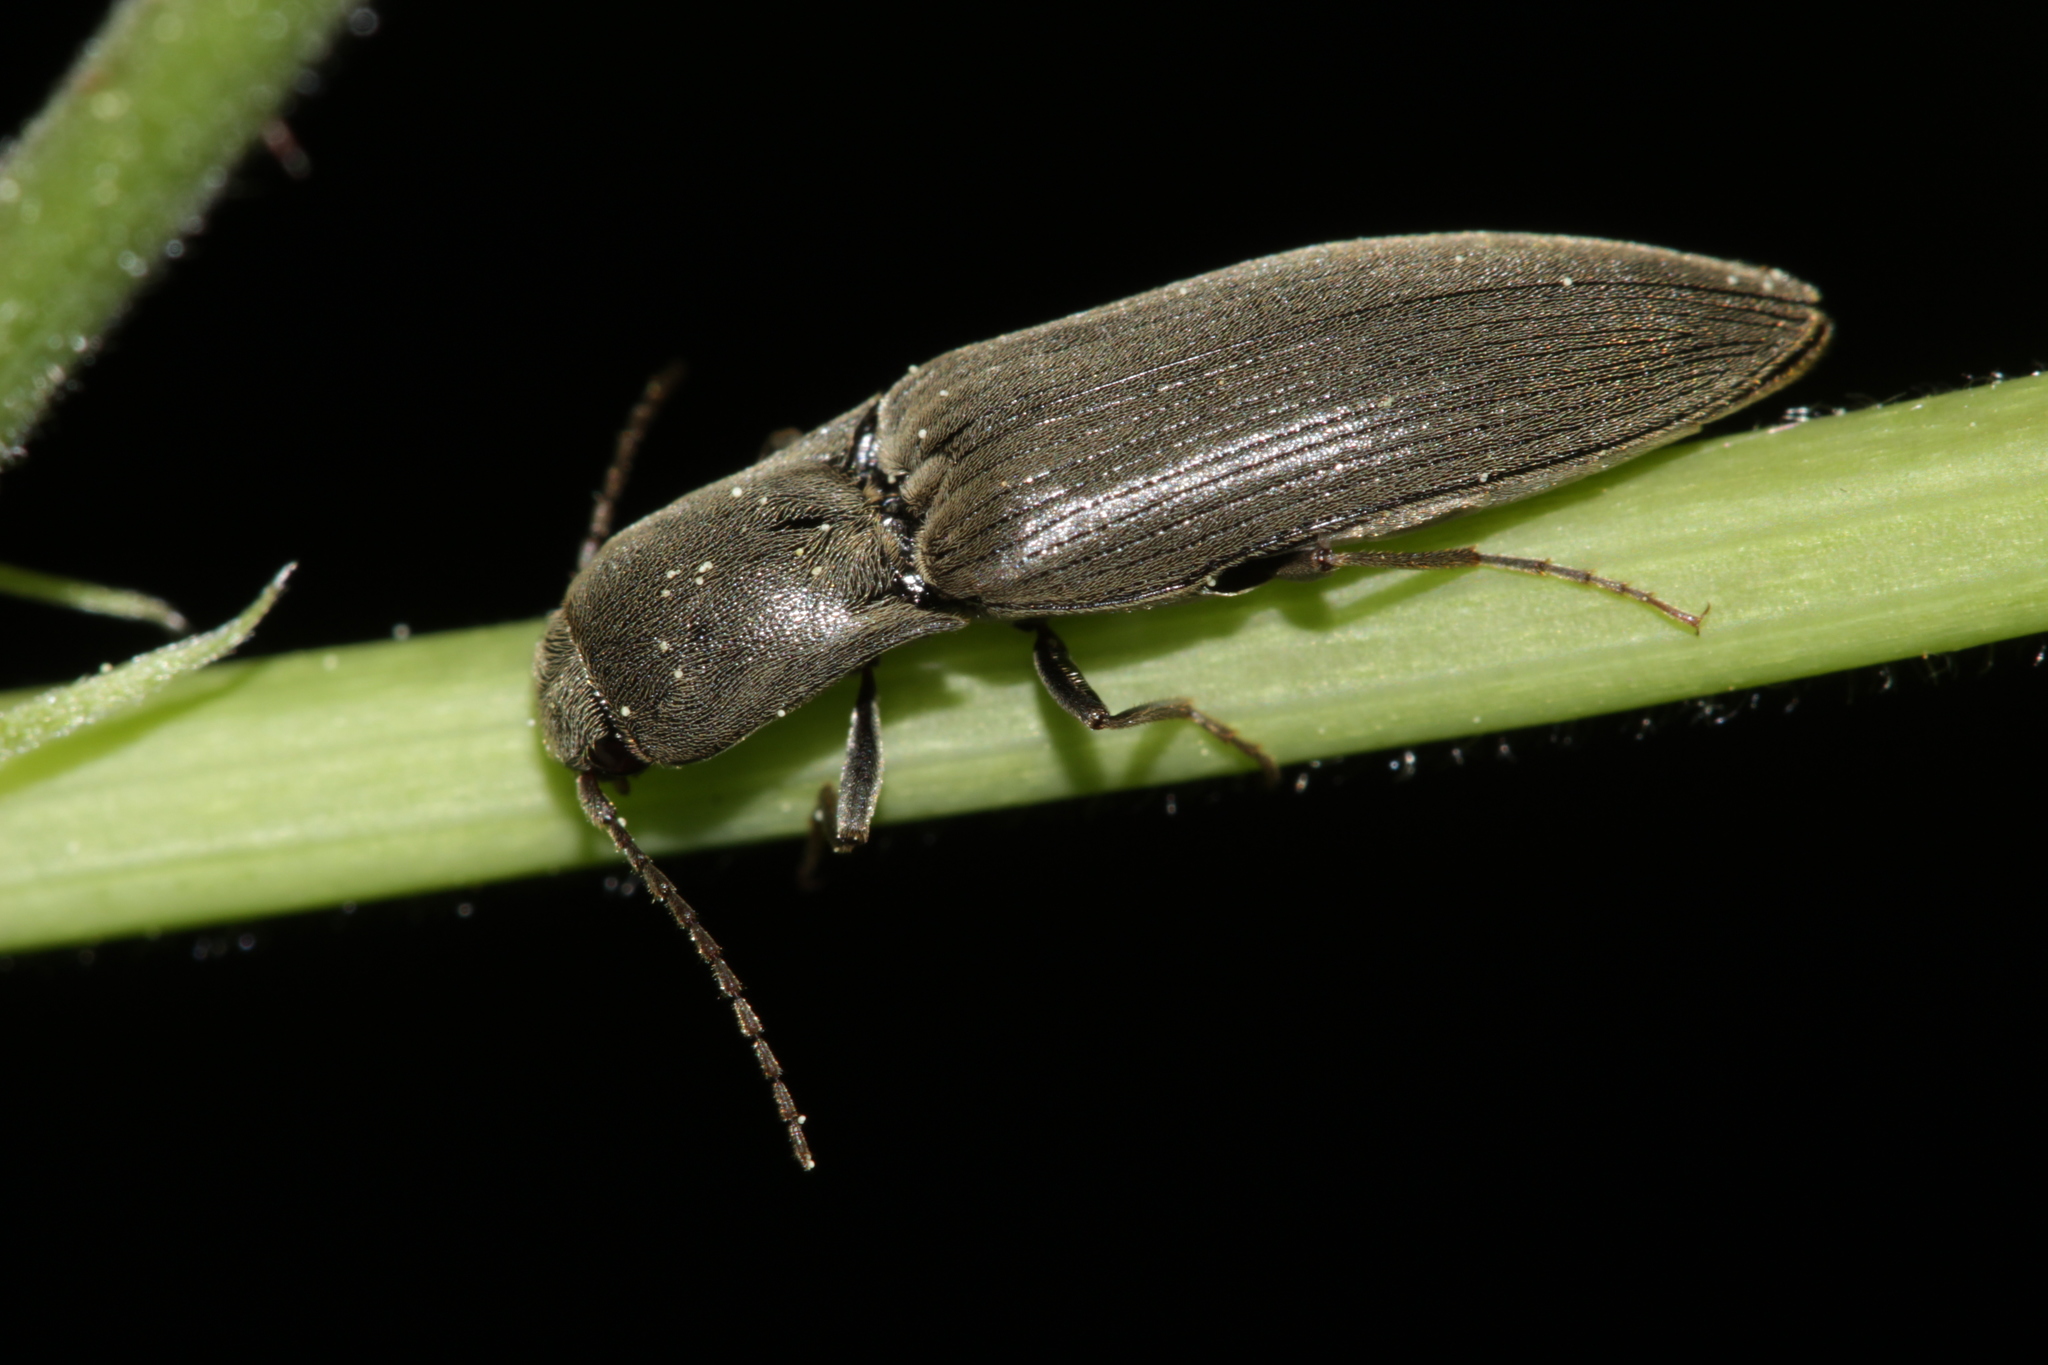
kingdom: Animalia
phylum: Arthropoda
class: Insecta
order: Coleoptera
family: Elateridae
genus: Agriotes
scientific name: Agriotes pilosellus
